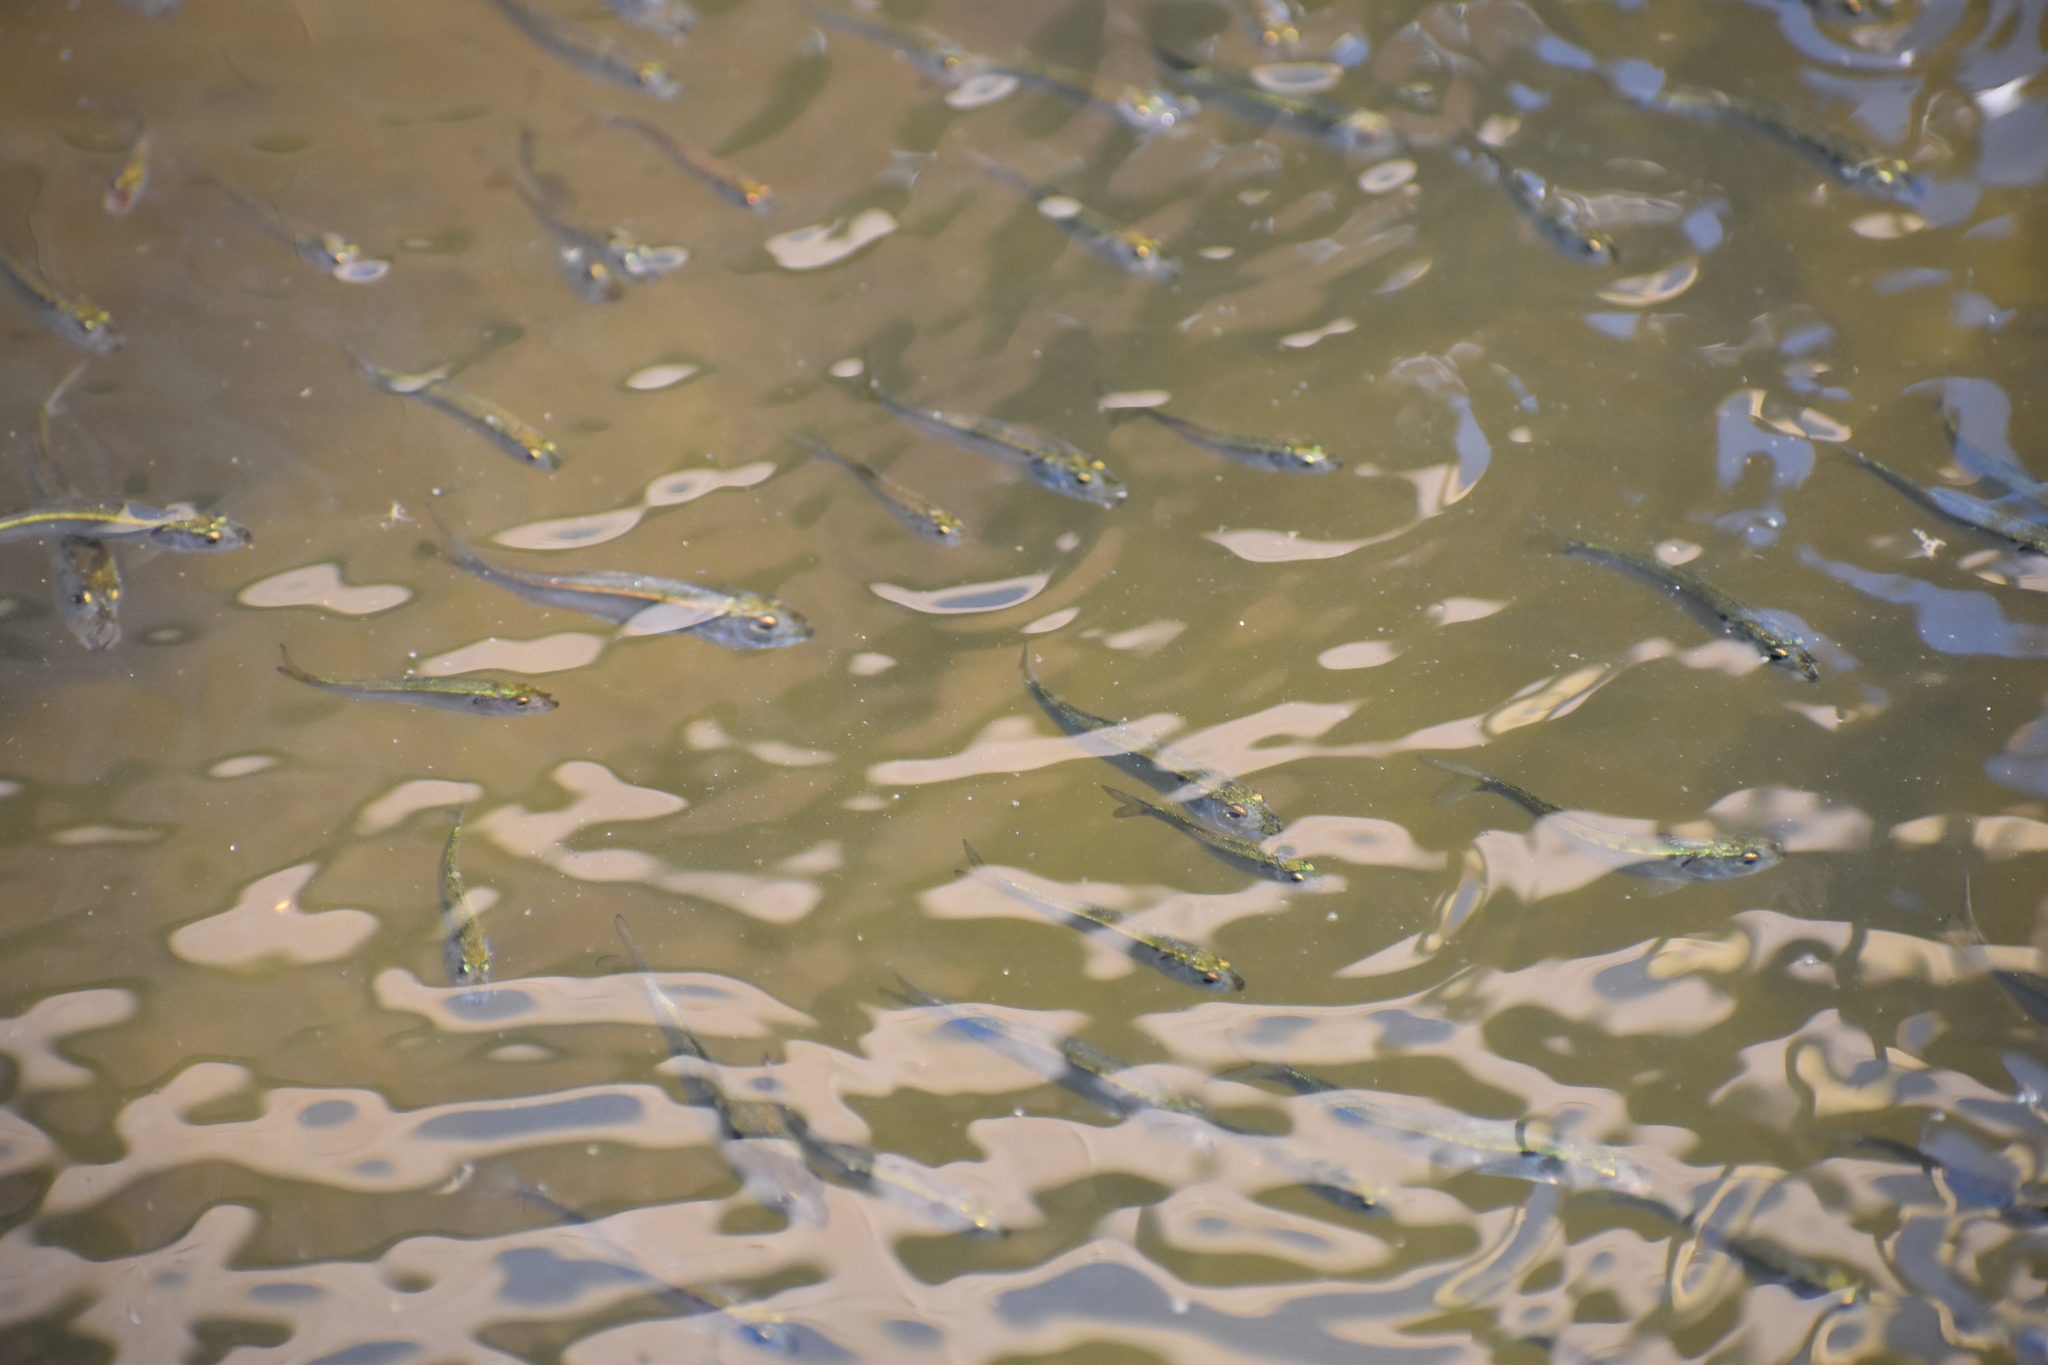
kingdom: Animalia
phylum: Chordata
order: Clupeiformes
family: Clupeidae
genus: Brevoortia
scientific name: Brevoortia tyrannus
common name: Atlantic menhaden
